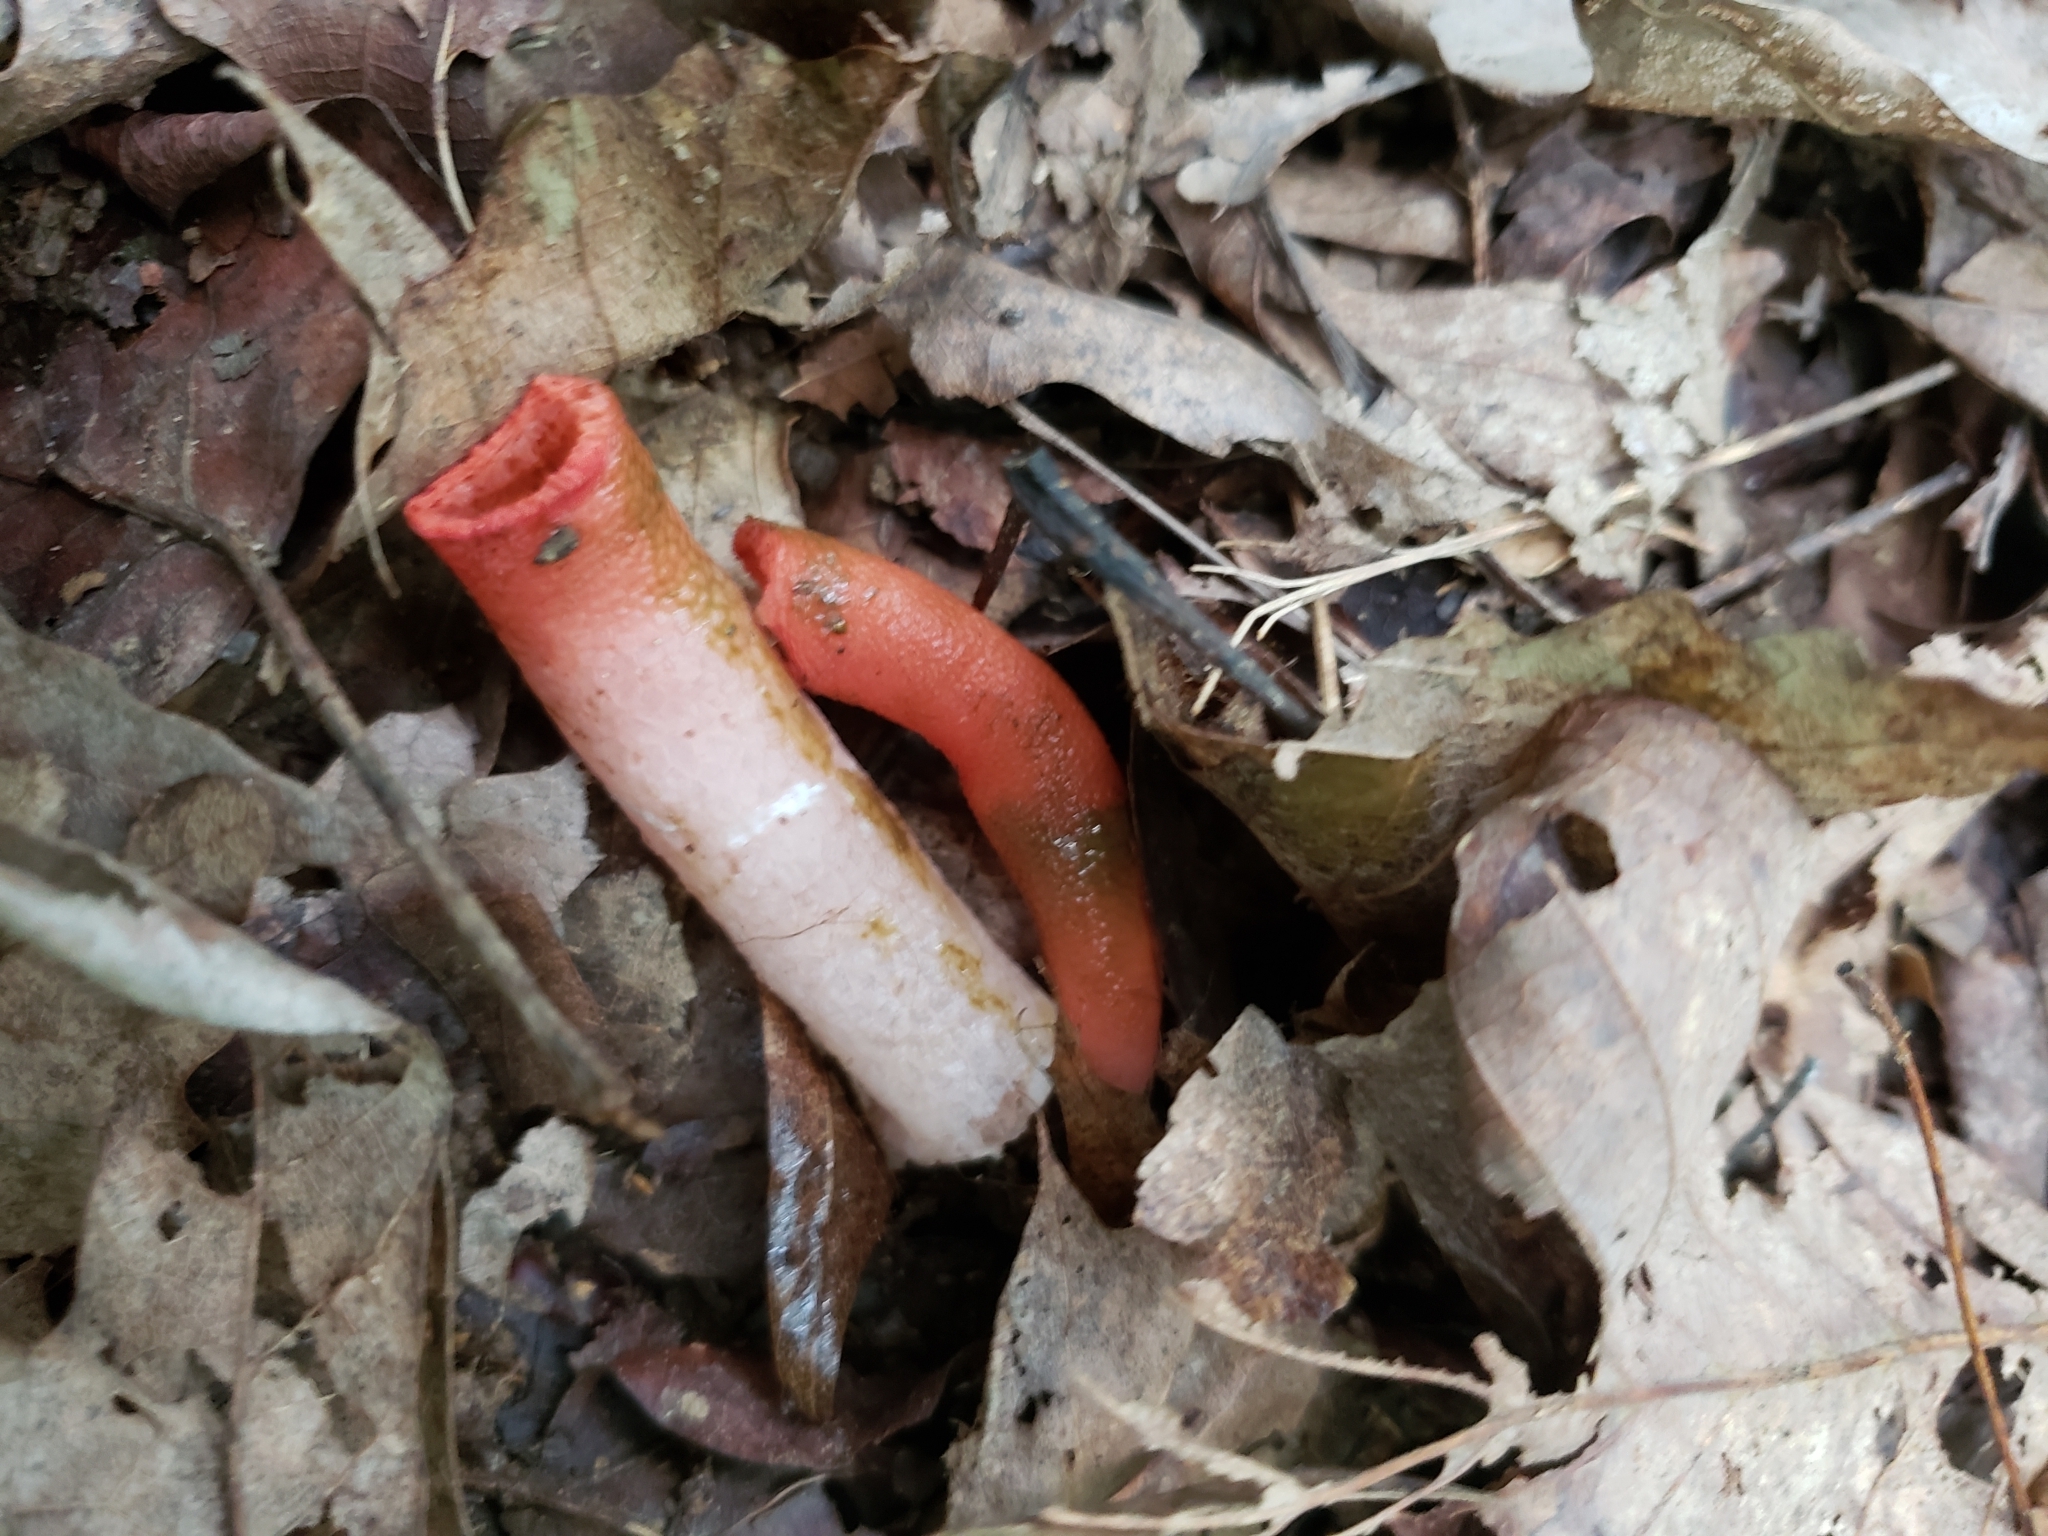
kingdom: Fungi
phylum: Basidiomycota
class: Agaricomycetes
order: Phallales
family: Phallaceae
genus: Mutinus
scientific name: Mutinus elegans
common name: Devil's dipstick
